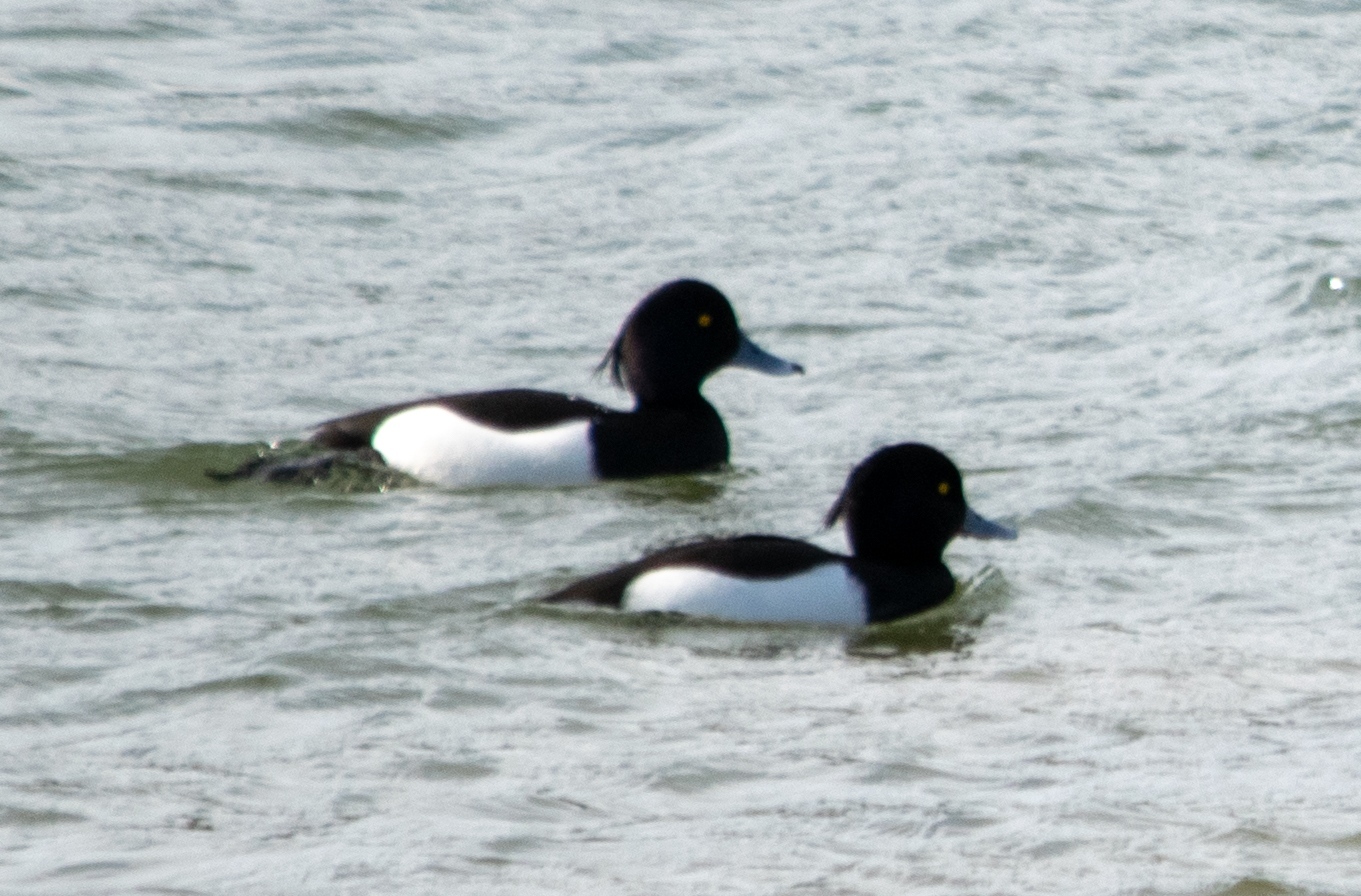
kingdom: Animalia
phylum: Chordata
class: Aves
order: Anseriformes
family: Anatidae
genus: Aythya
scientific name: Aythya fuligula
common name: Tufted duck
